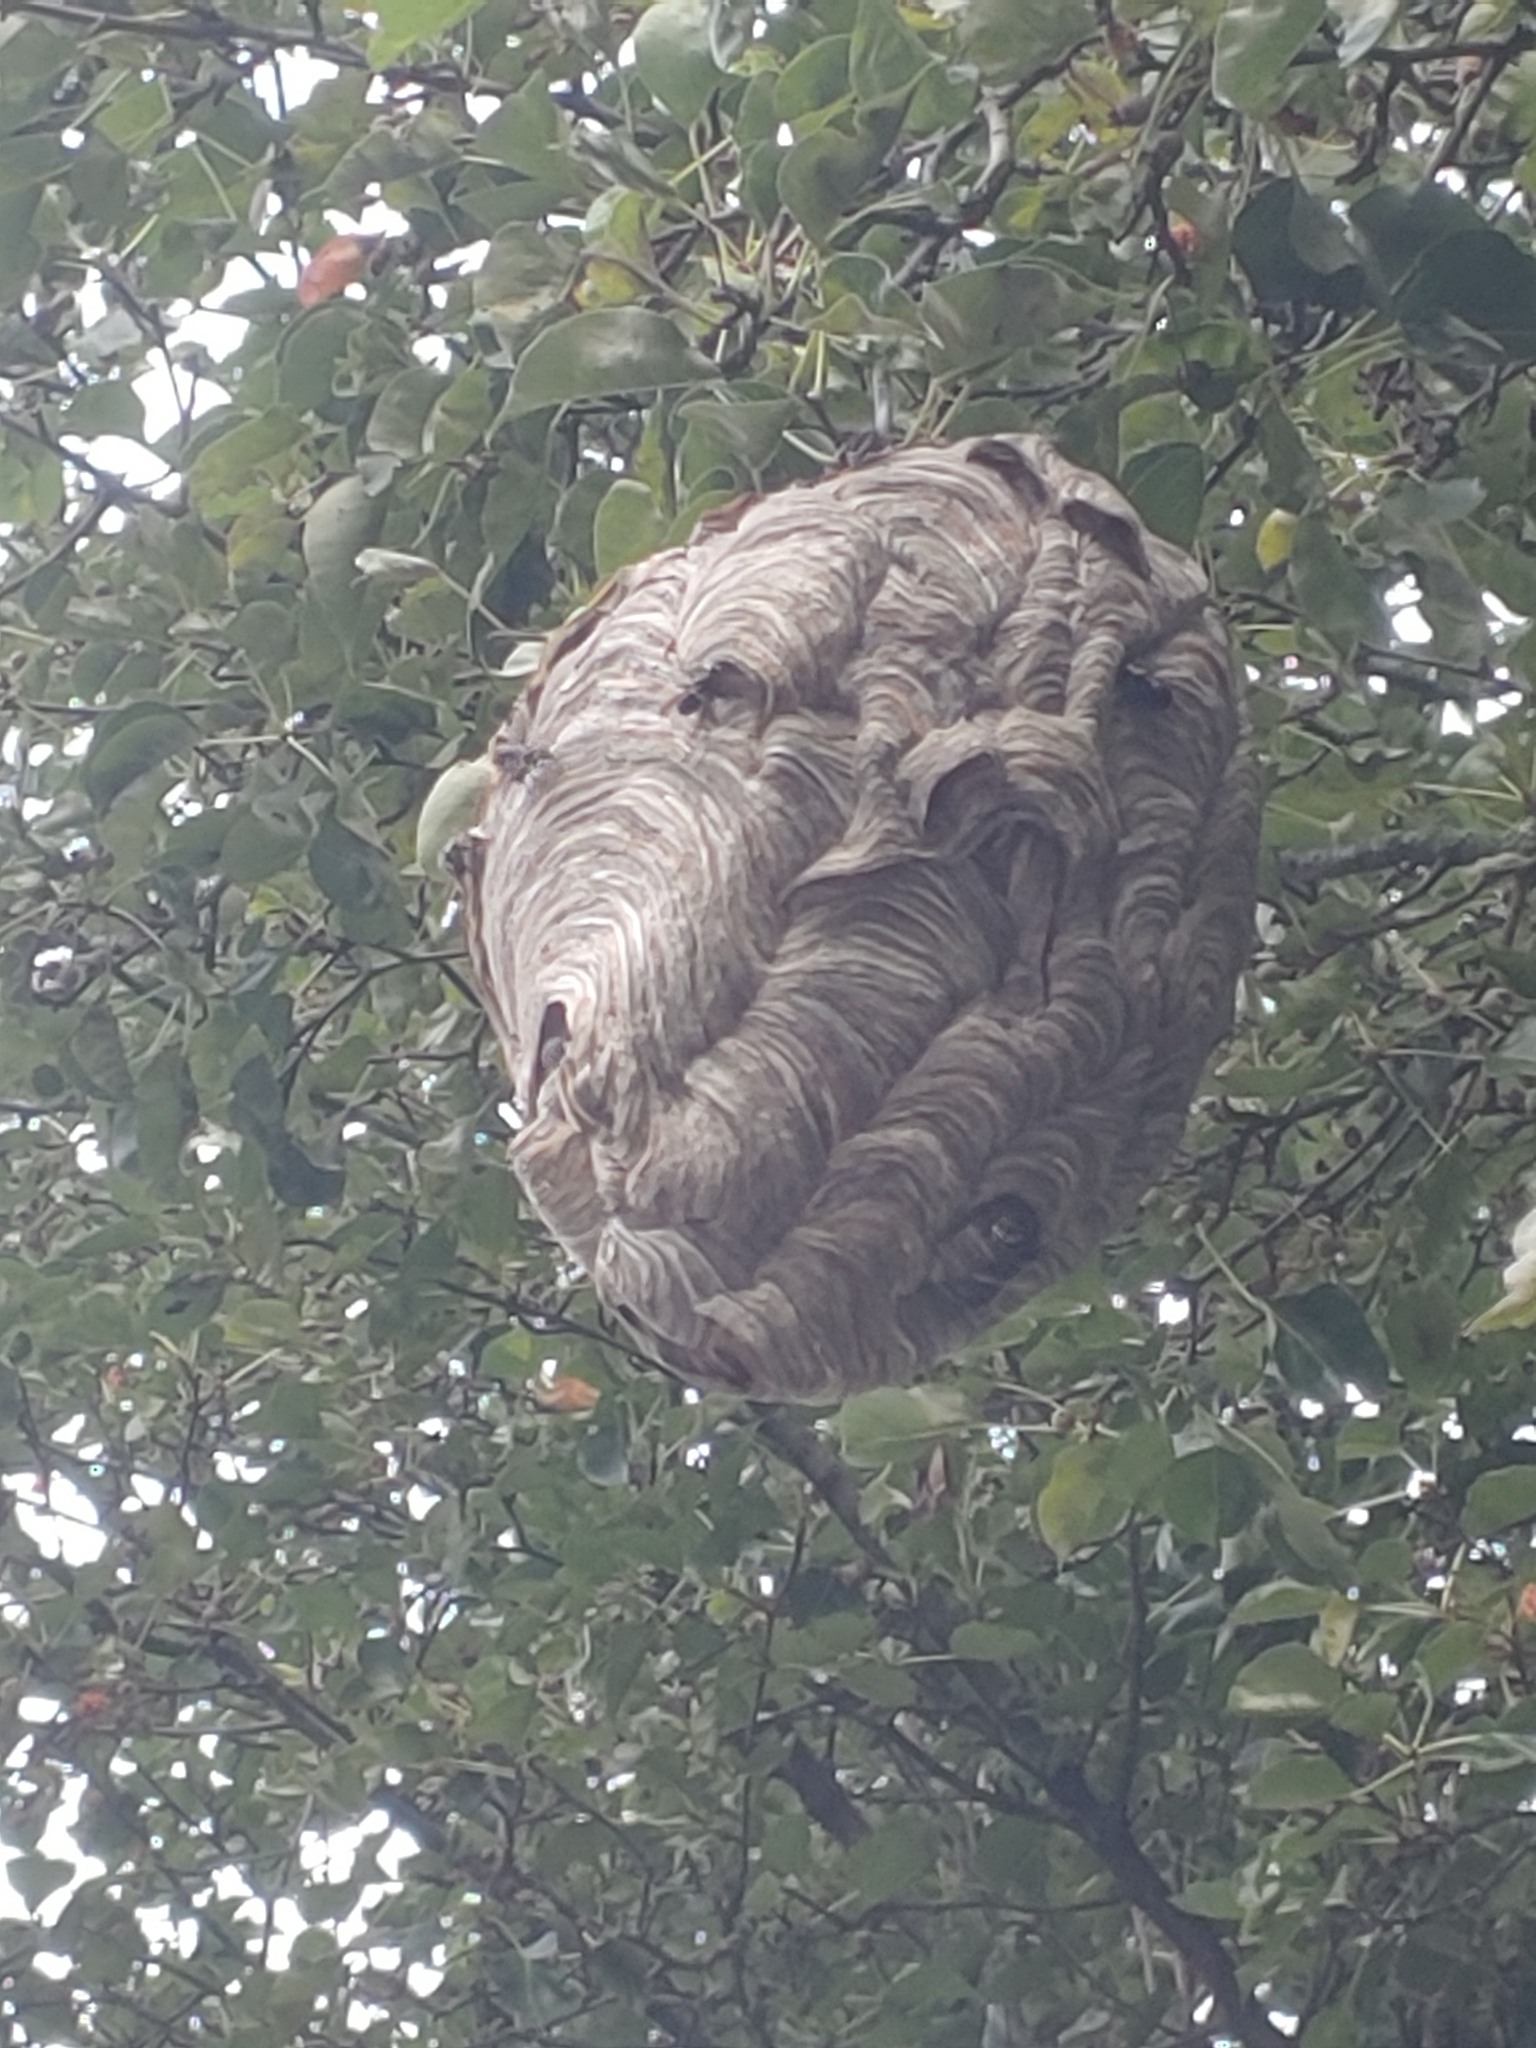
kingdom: Animalia
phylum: Arthropoda
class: Insecta
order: Hymenoptera
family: Vespidae
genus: Dolichovespula
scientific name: Dolichovespula maculata
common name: Bald-faced hornet
